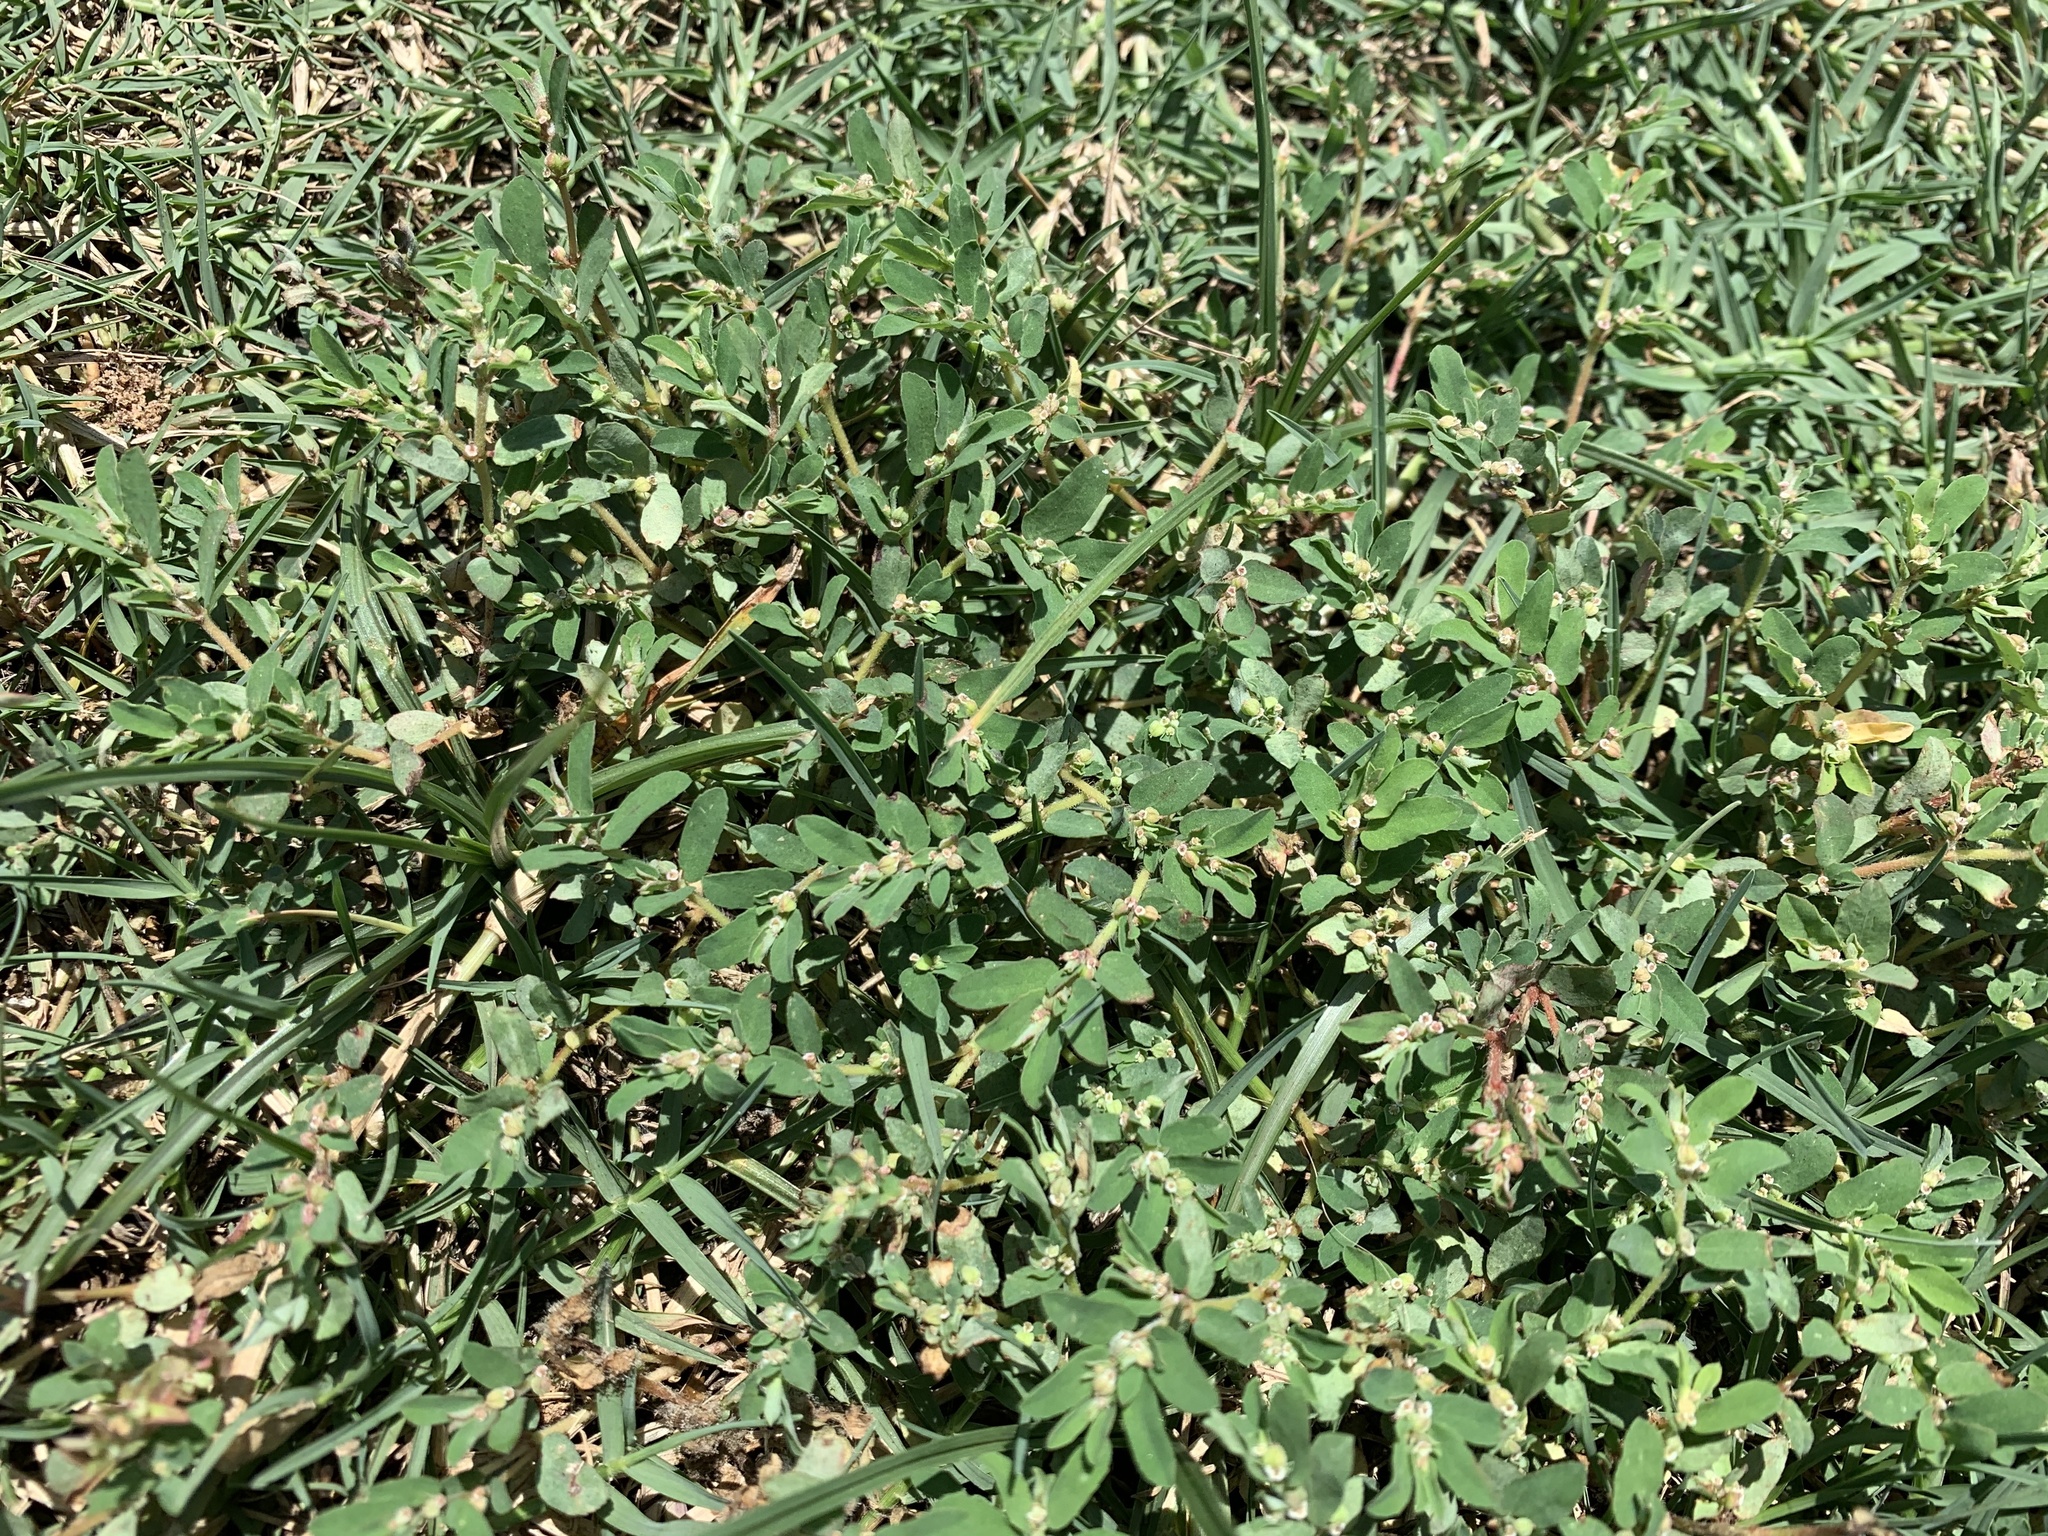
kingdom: Plantae
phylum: Tracheophyta
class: Magnoliopsida
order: Malpighiales
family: Euphorbiaceae
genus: Euphorbia
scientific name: Euphorbia maculata
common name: Spotted spurge
